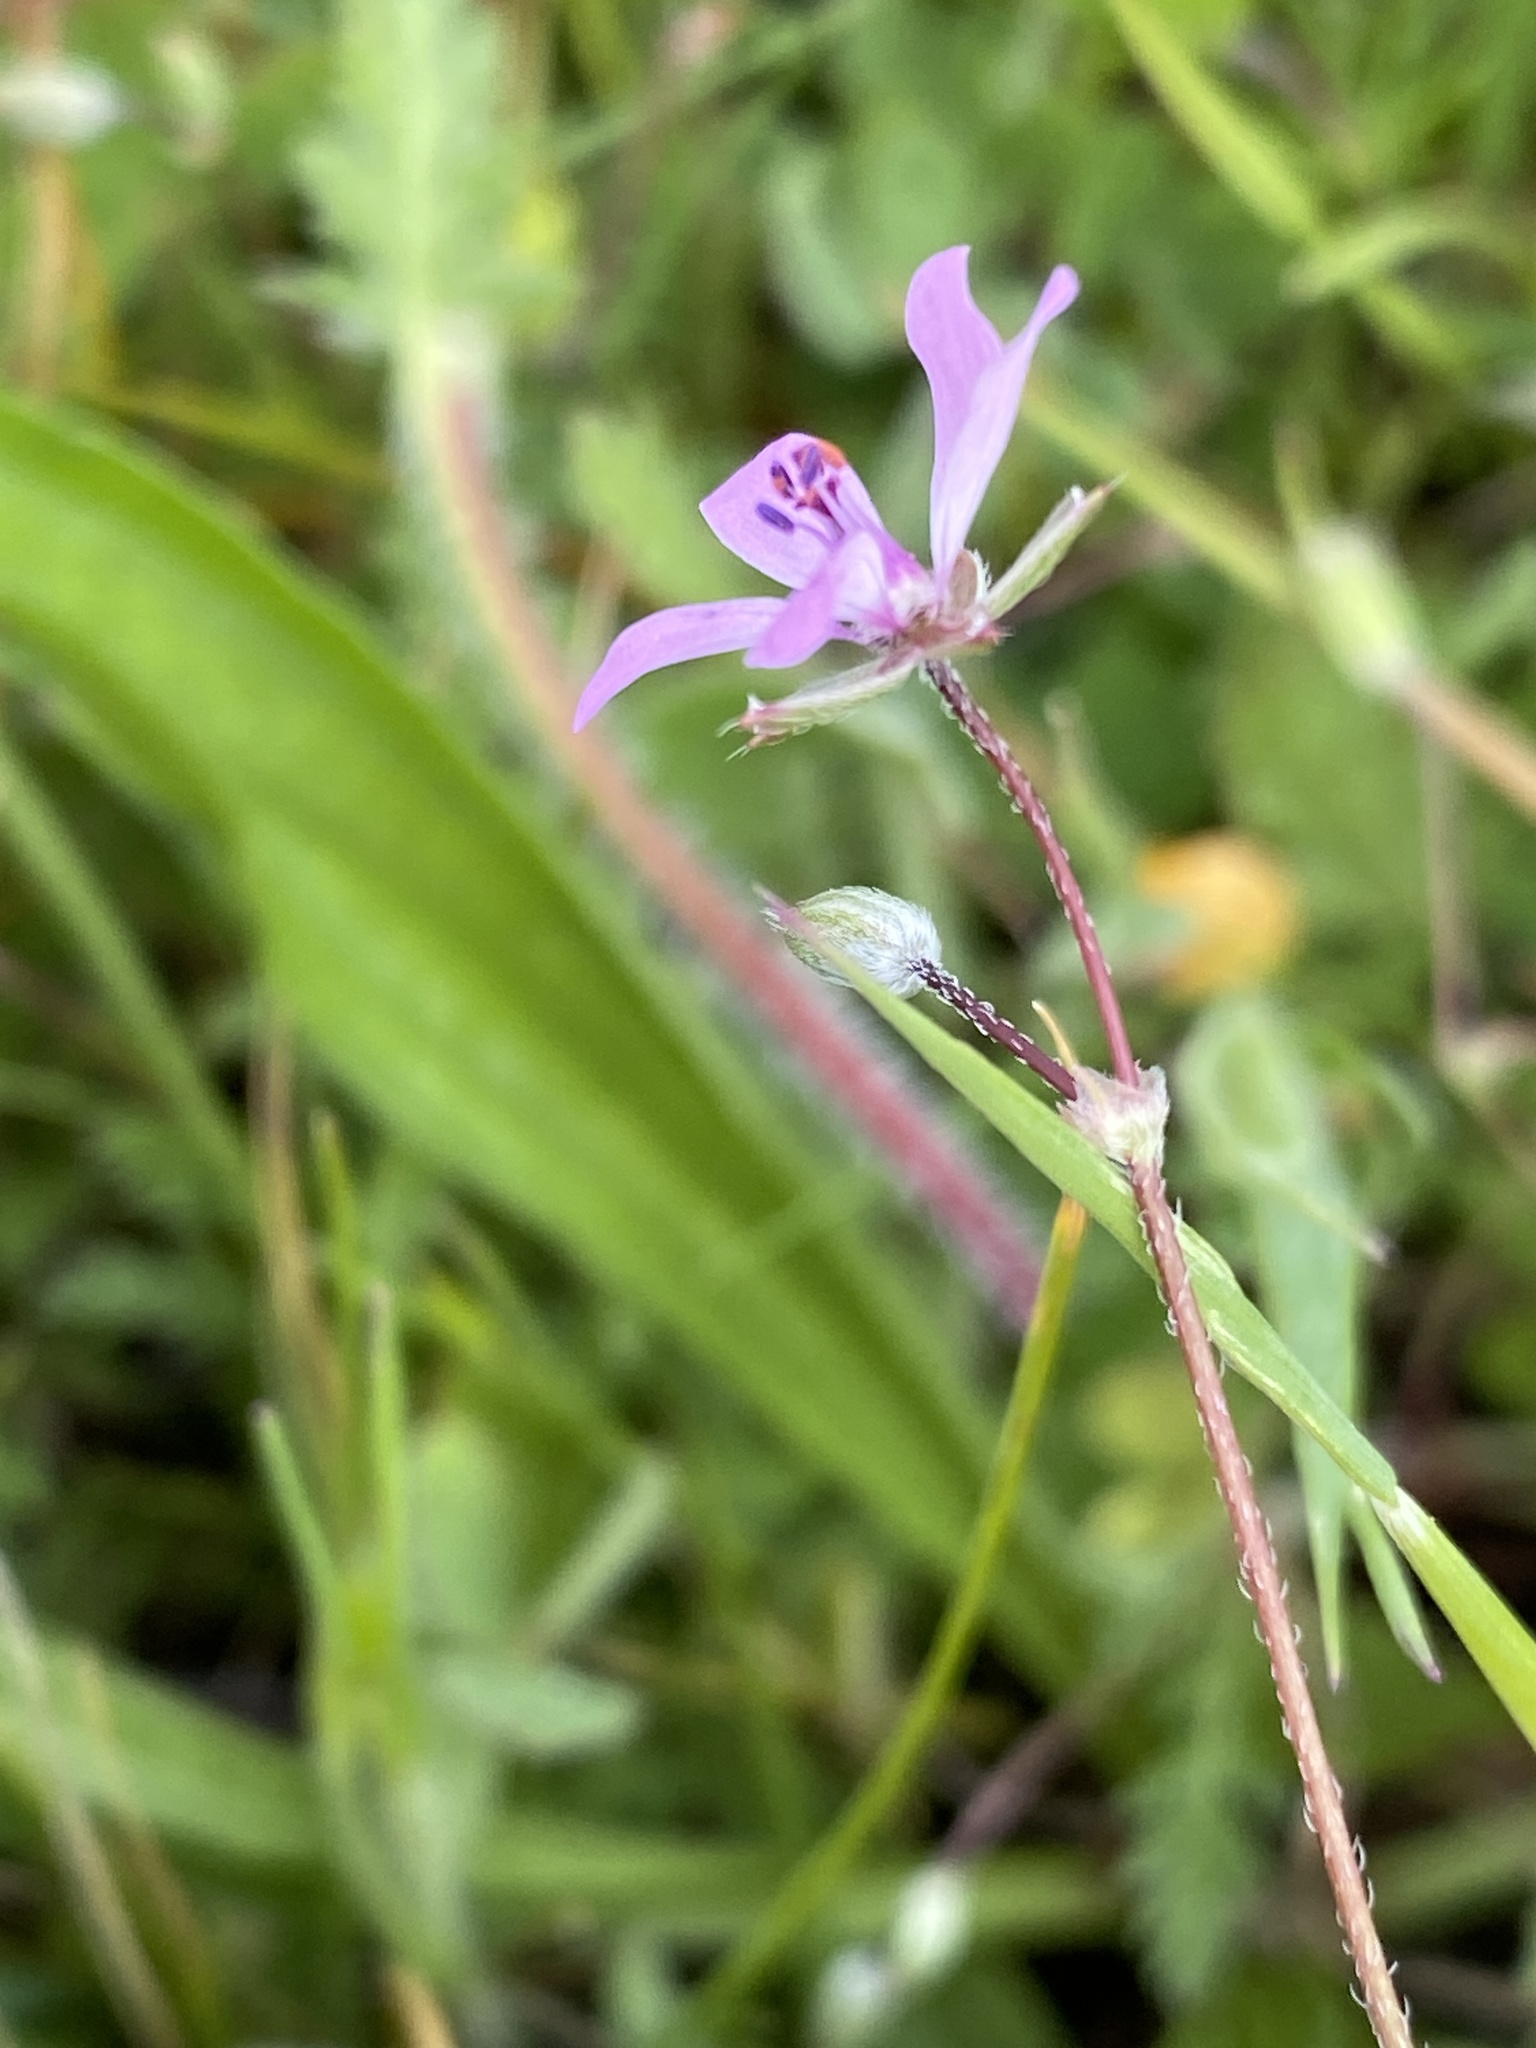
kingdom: Plantae
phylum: Tracheophyta
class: Magnoliopsida
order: Geraniales
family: Geraniaceae
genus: Erodium
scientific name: Erodium cicutarium
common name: Common stork's-bill
